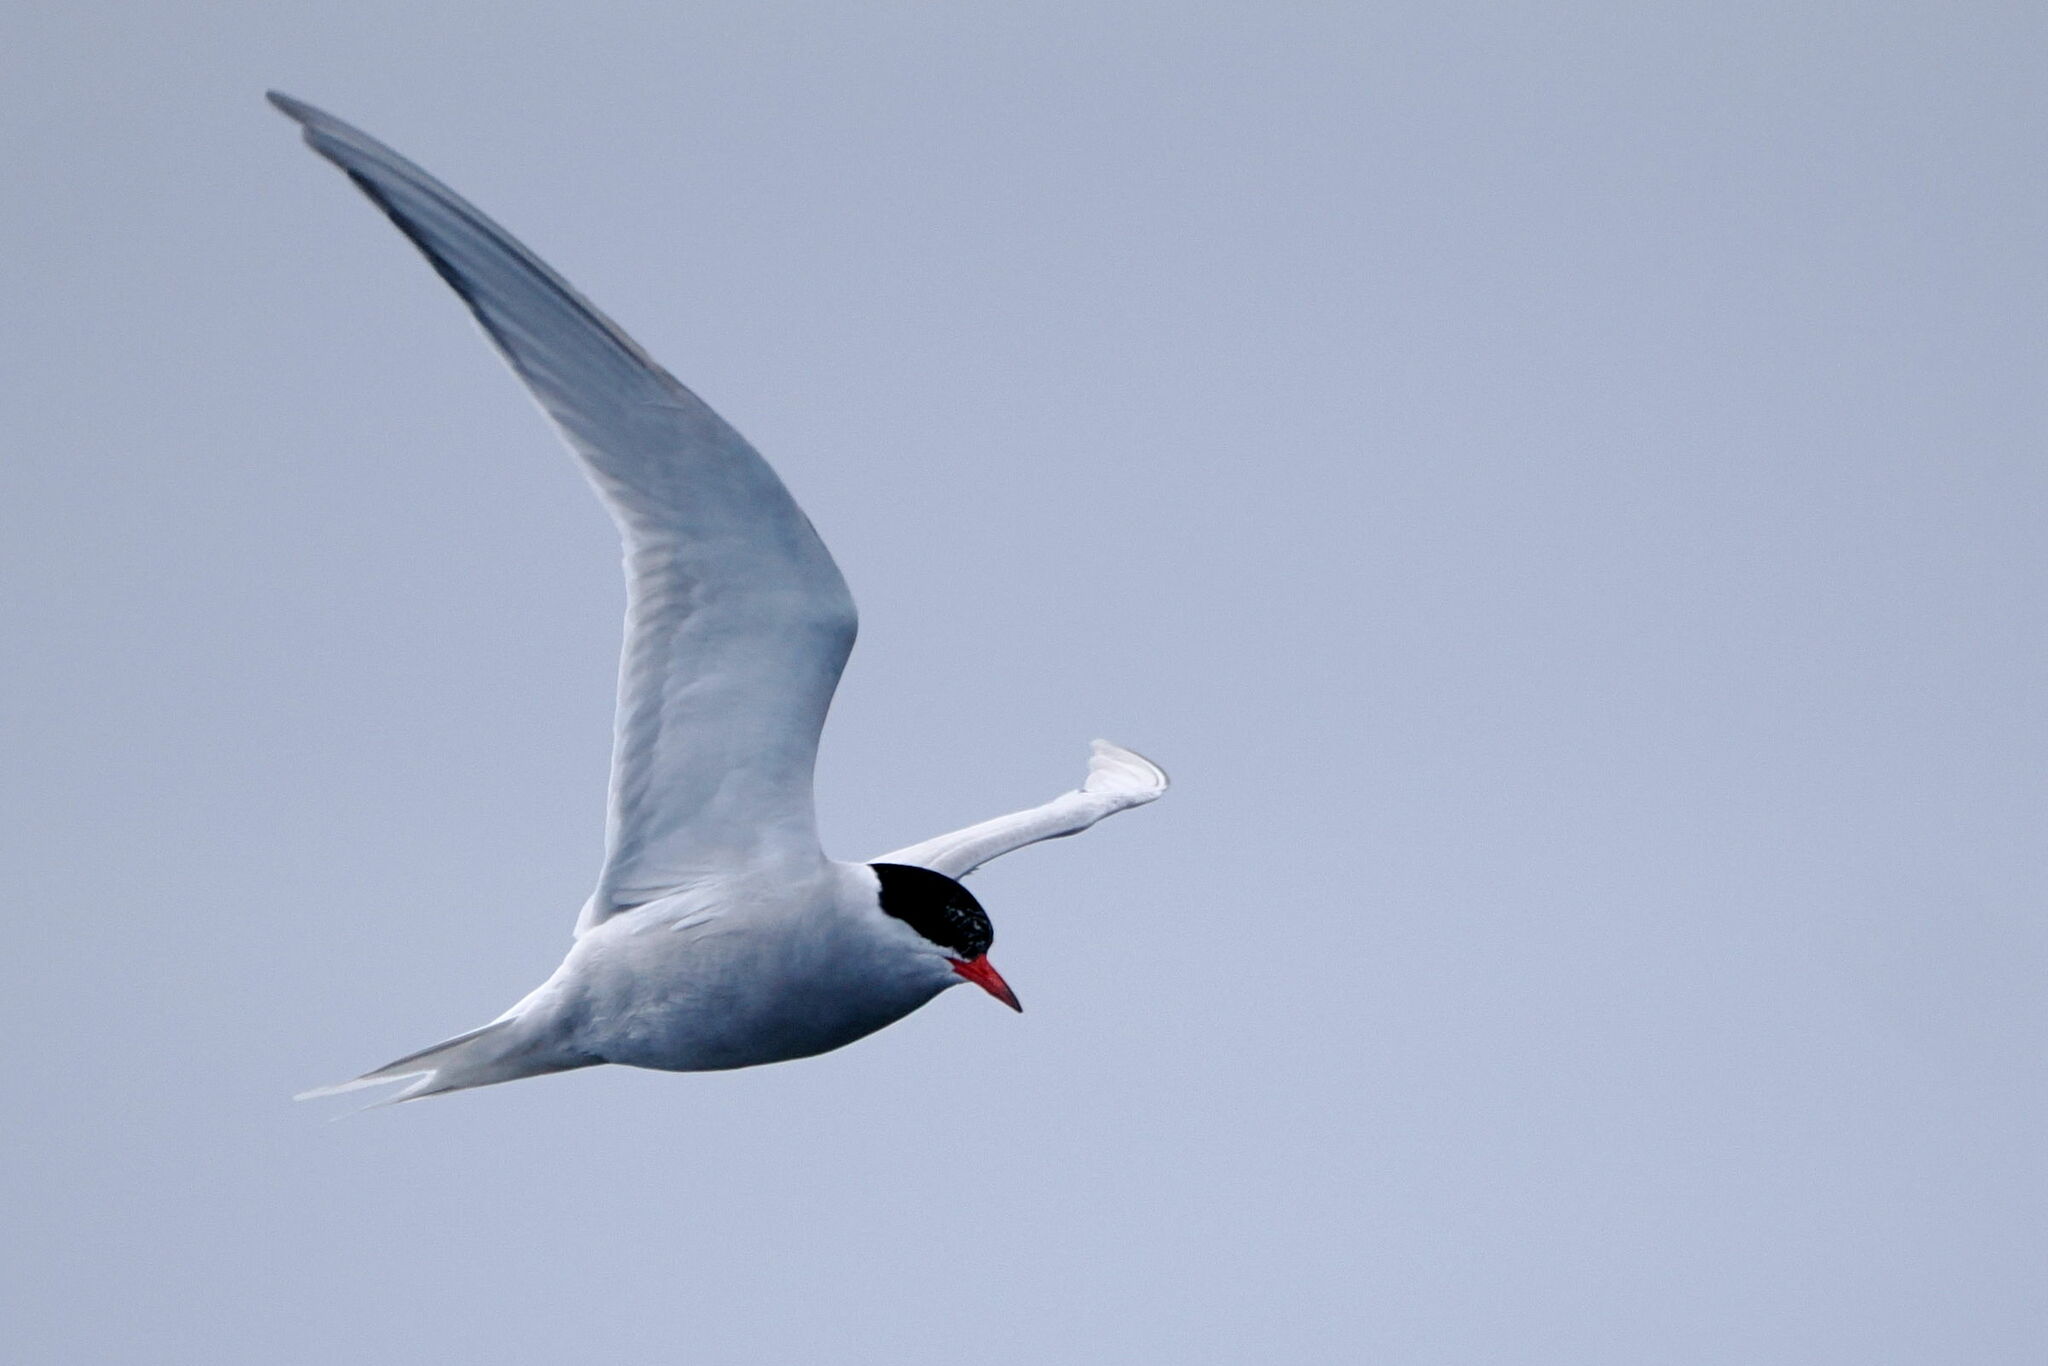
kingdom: Animalia
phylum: Chordata
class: Aves
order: Charadriiformes
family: Laridae
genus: Sterna
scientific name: Sterna vittata
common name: Antarctic tern
